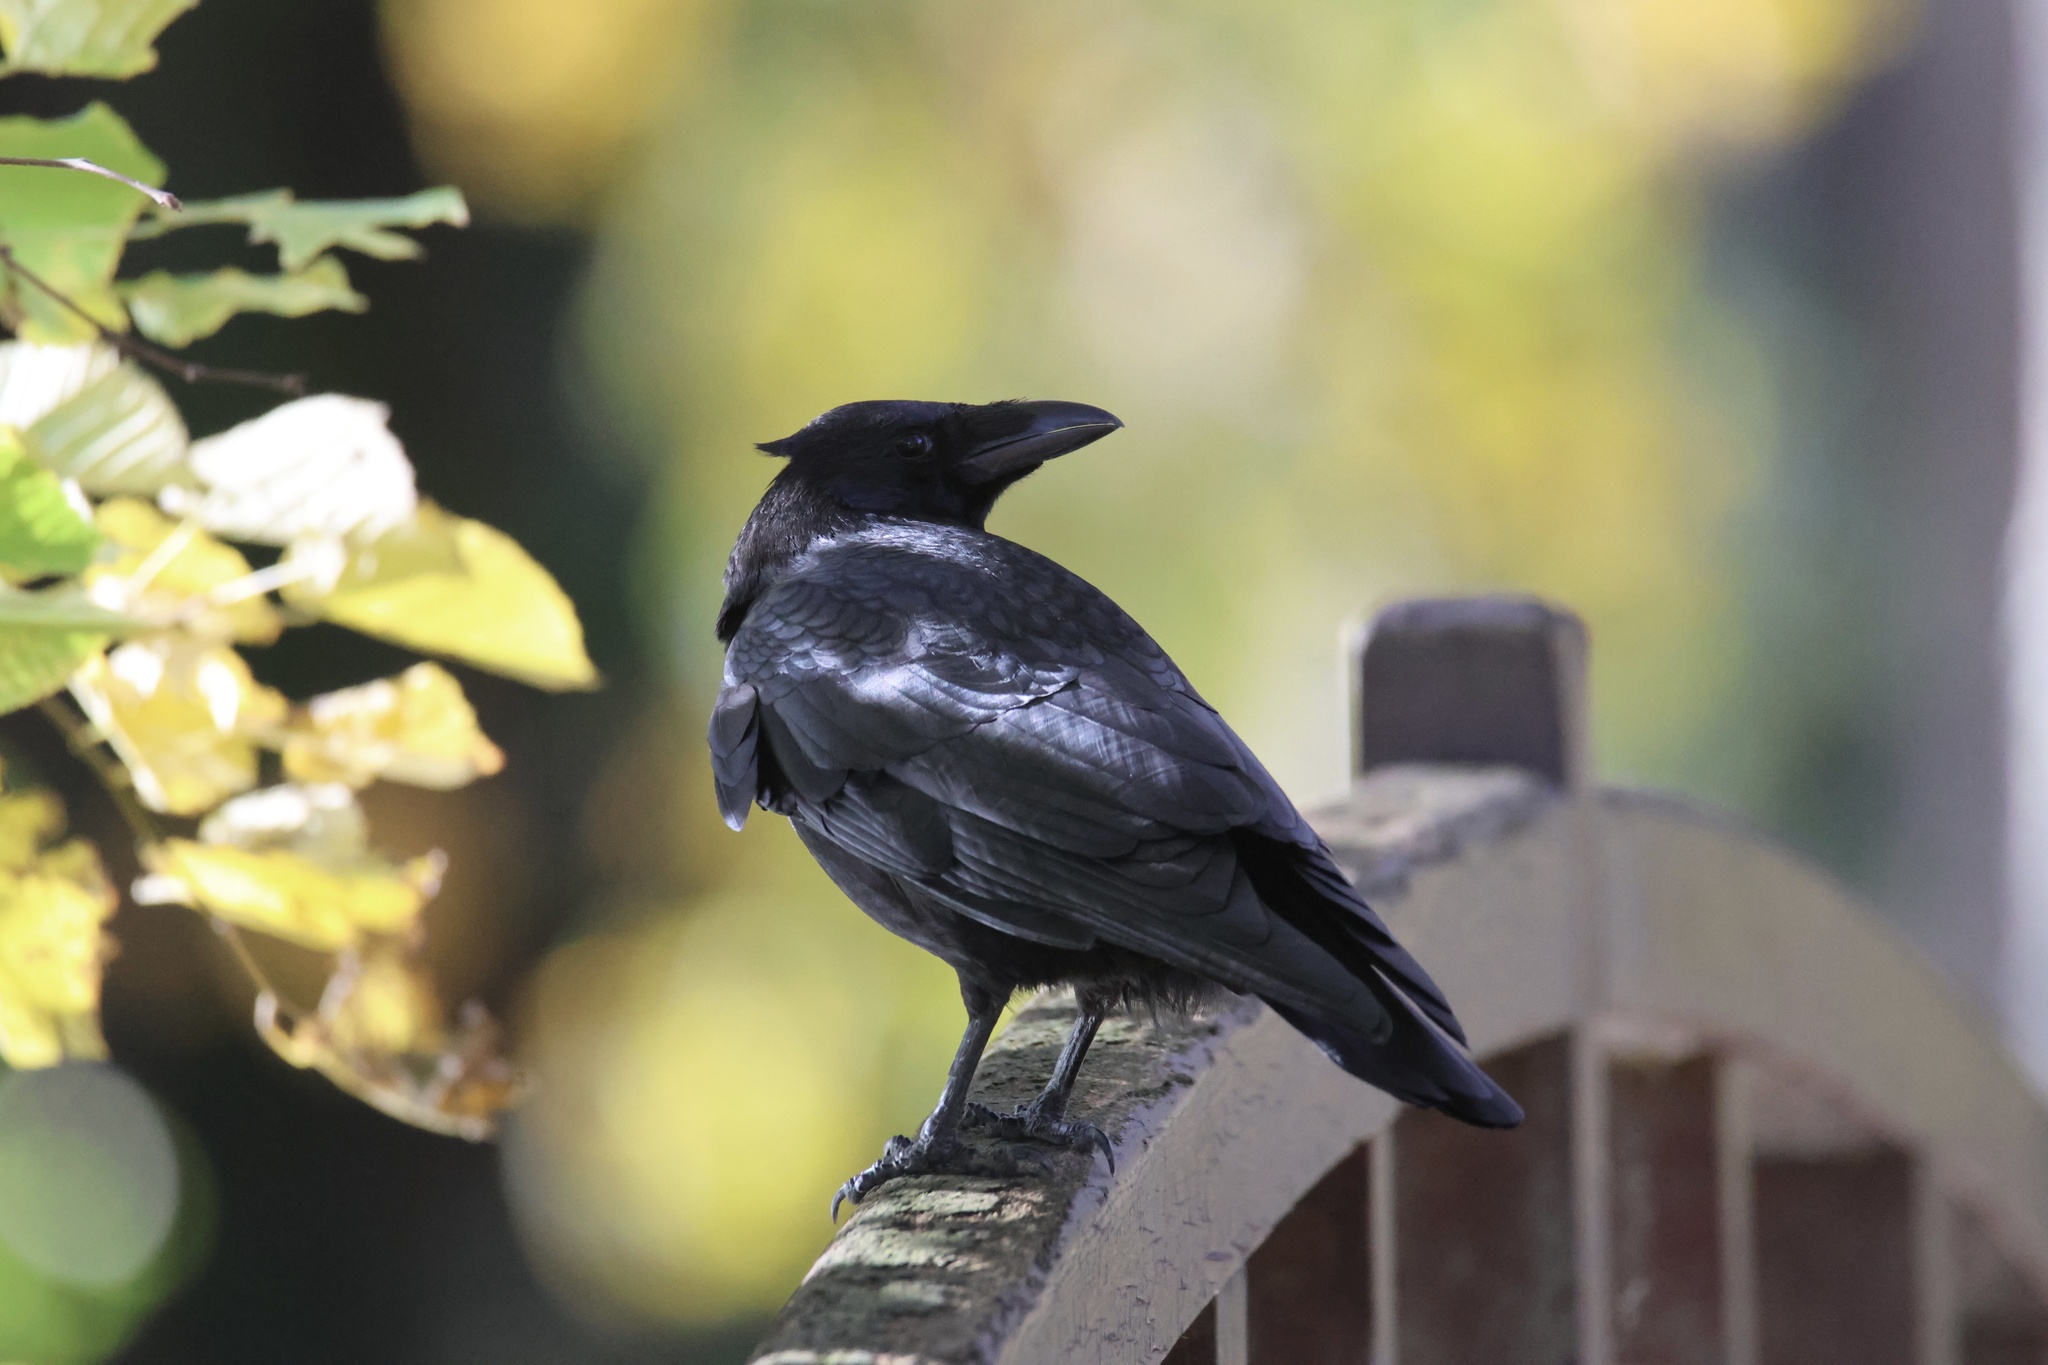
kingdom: Animalia
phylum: Chordata
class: Aves
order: Passeriformes
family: Corvidae
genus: Corvus
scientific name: Corvus corone
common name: Carrion crow
